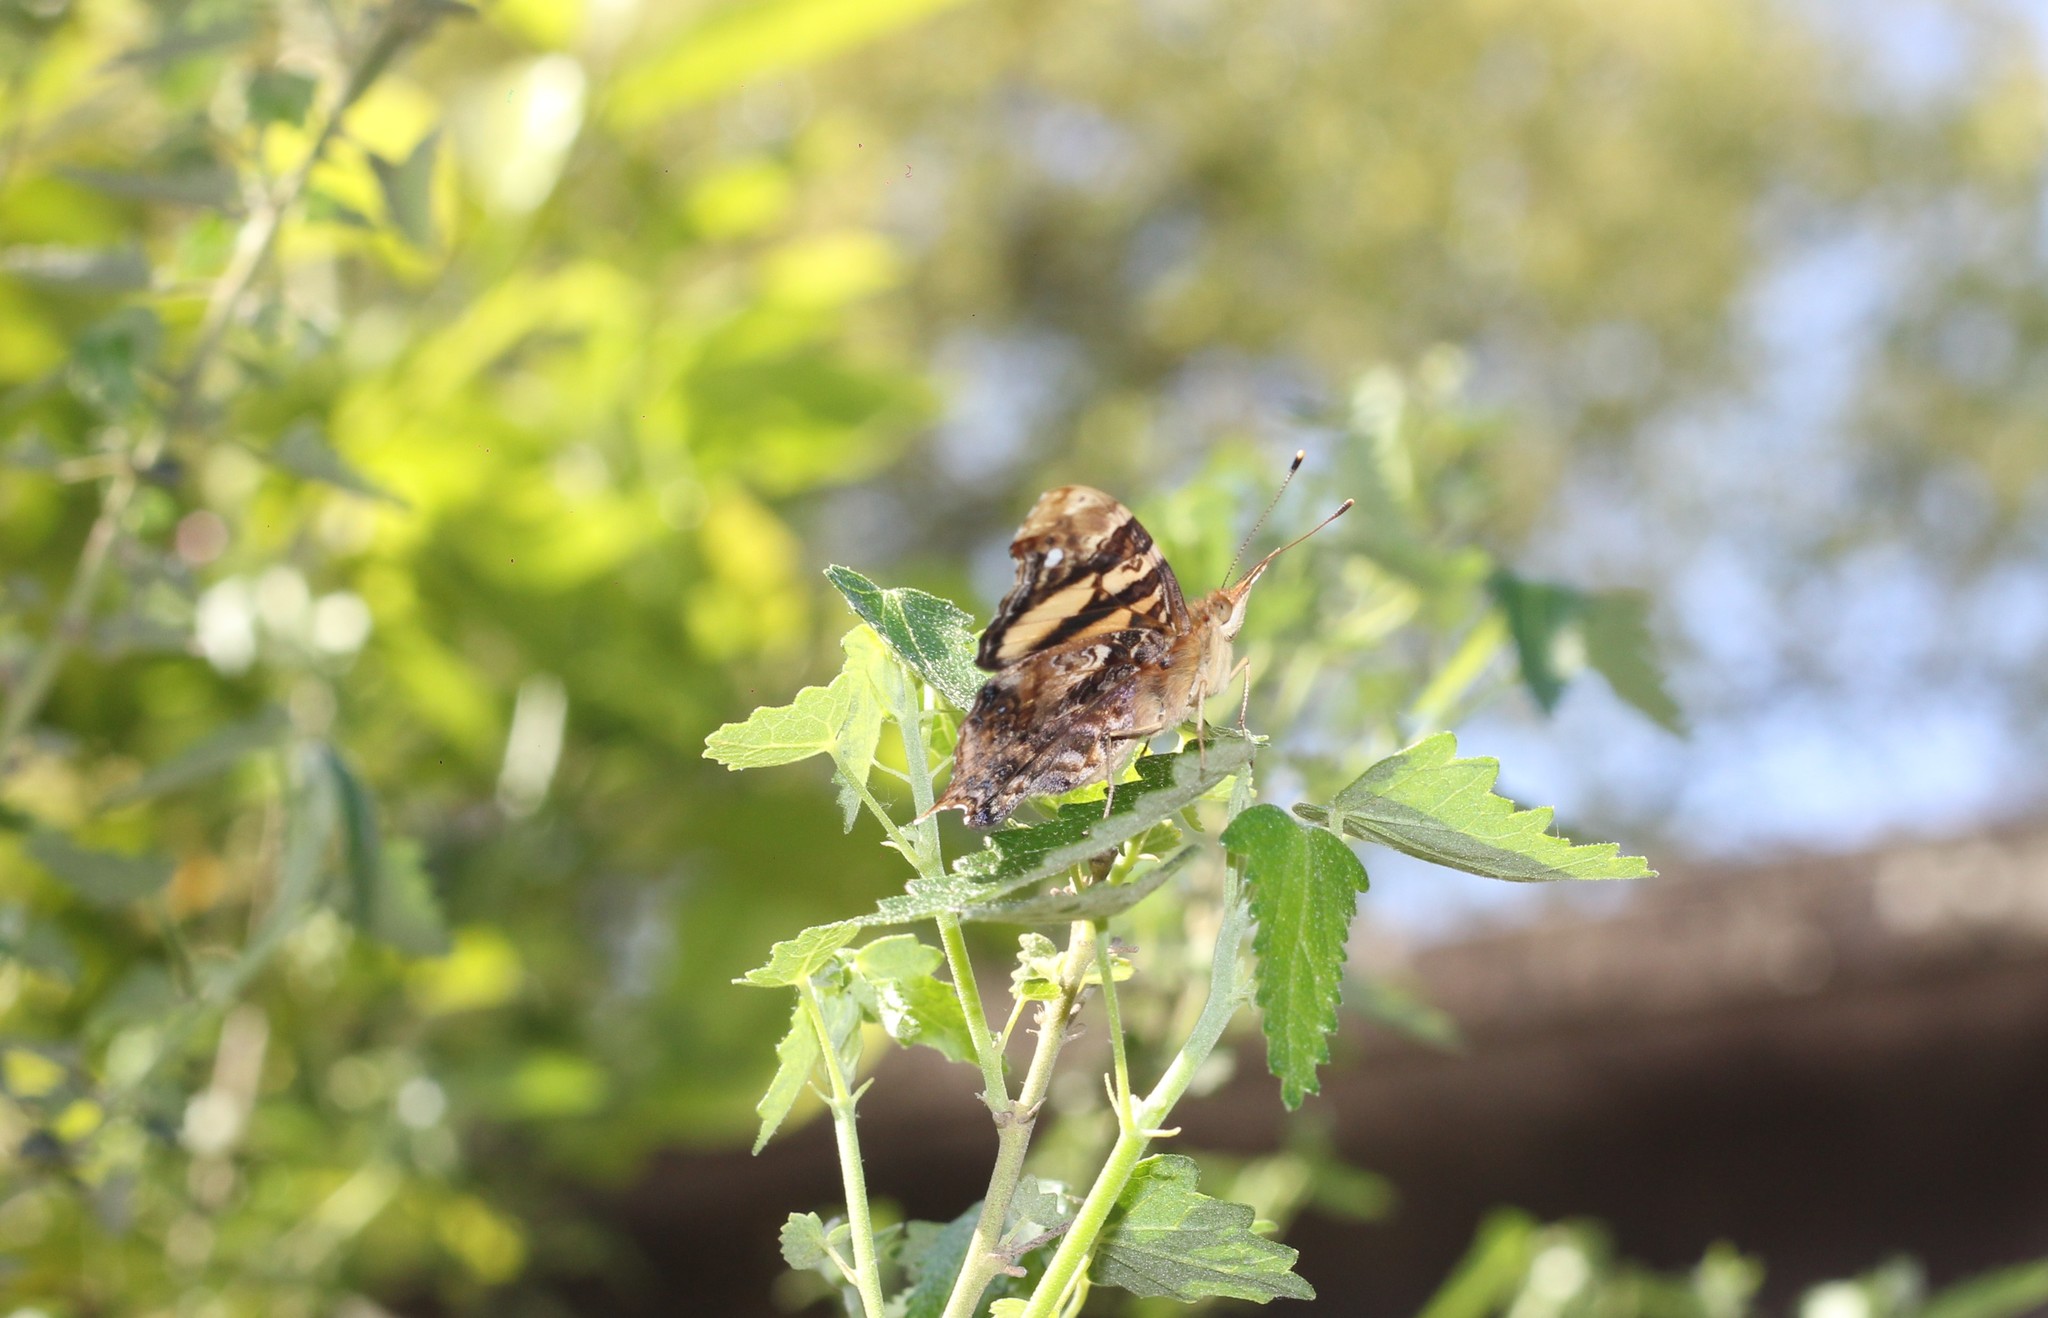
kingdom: Animalia
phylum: Arthropoda
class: Insecta
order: Lepidoptera
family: Nymphalidae
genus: Hypanartia
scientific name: Hypanartia bella
